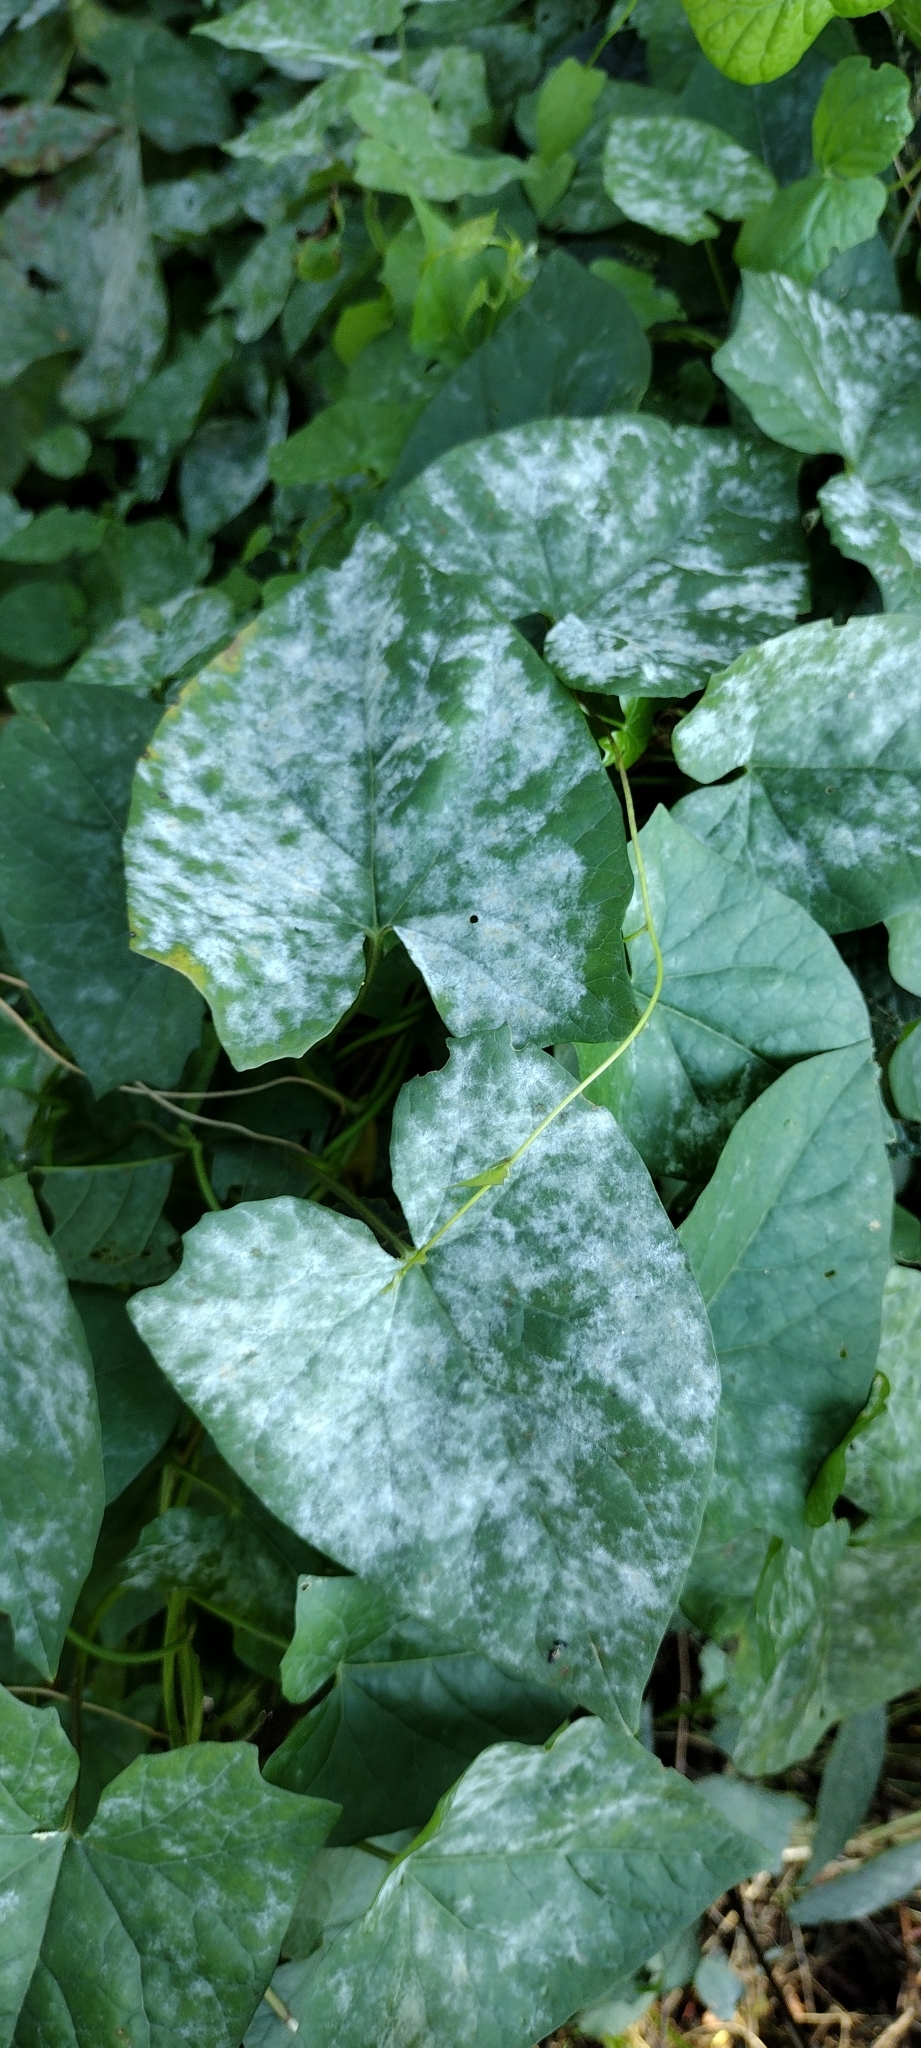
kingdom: Fungi
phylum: Ascomycota
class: Leotiomycetes
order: Helotiales
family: Erysiphaceae
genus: Erysiphe
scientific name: Erysiphe convolvuli
